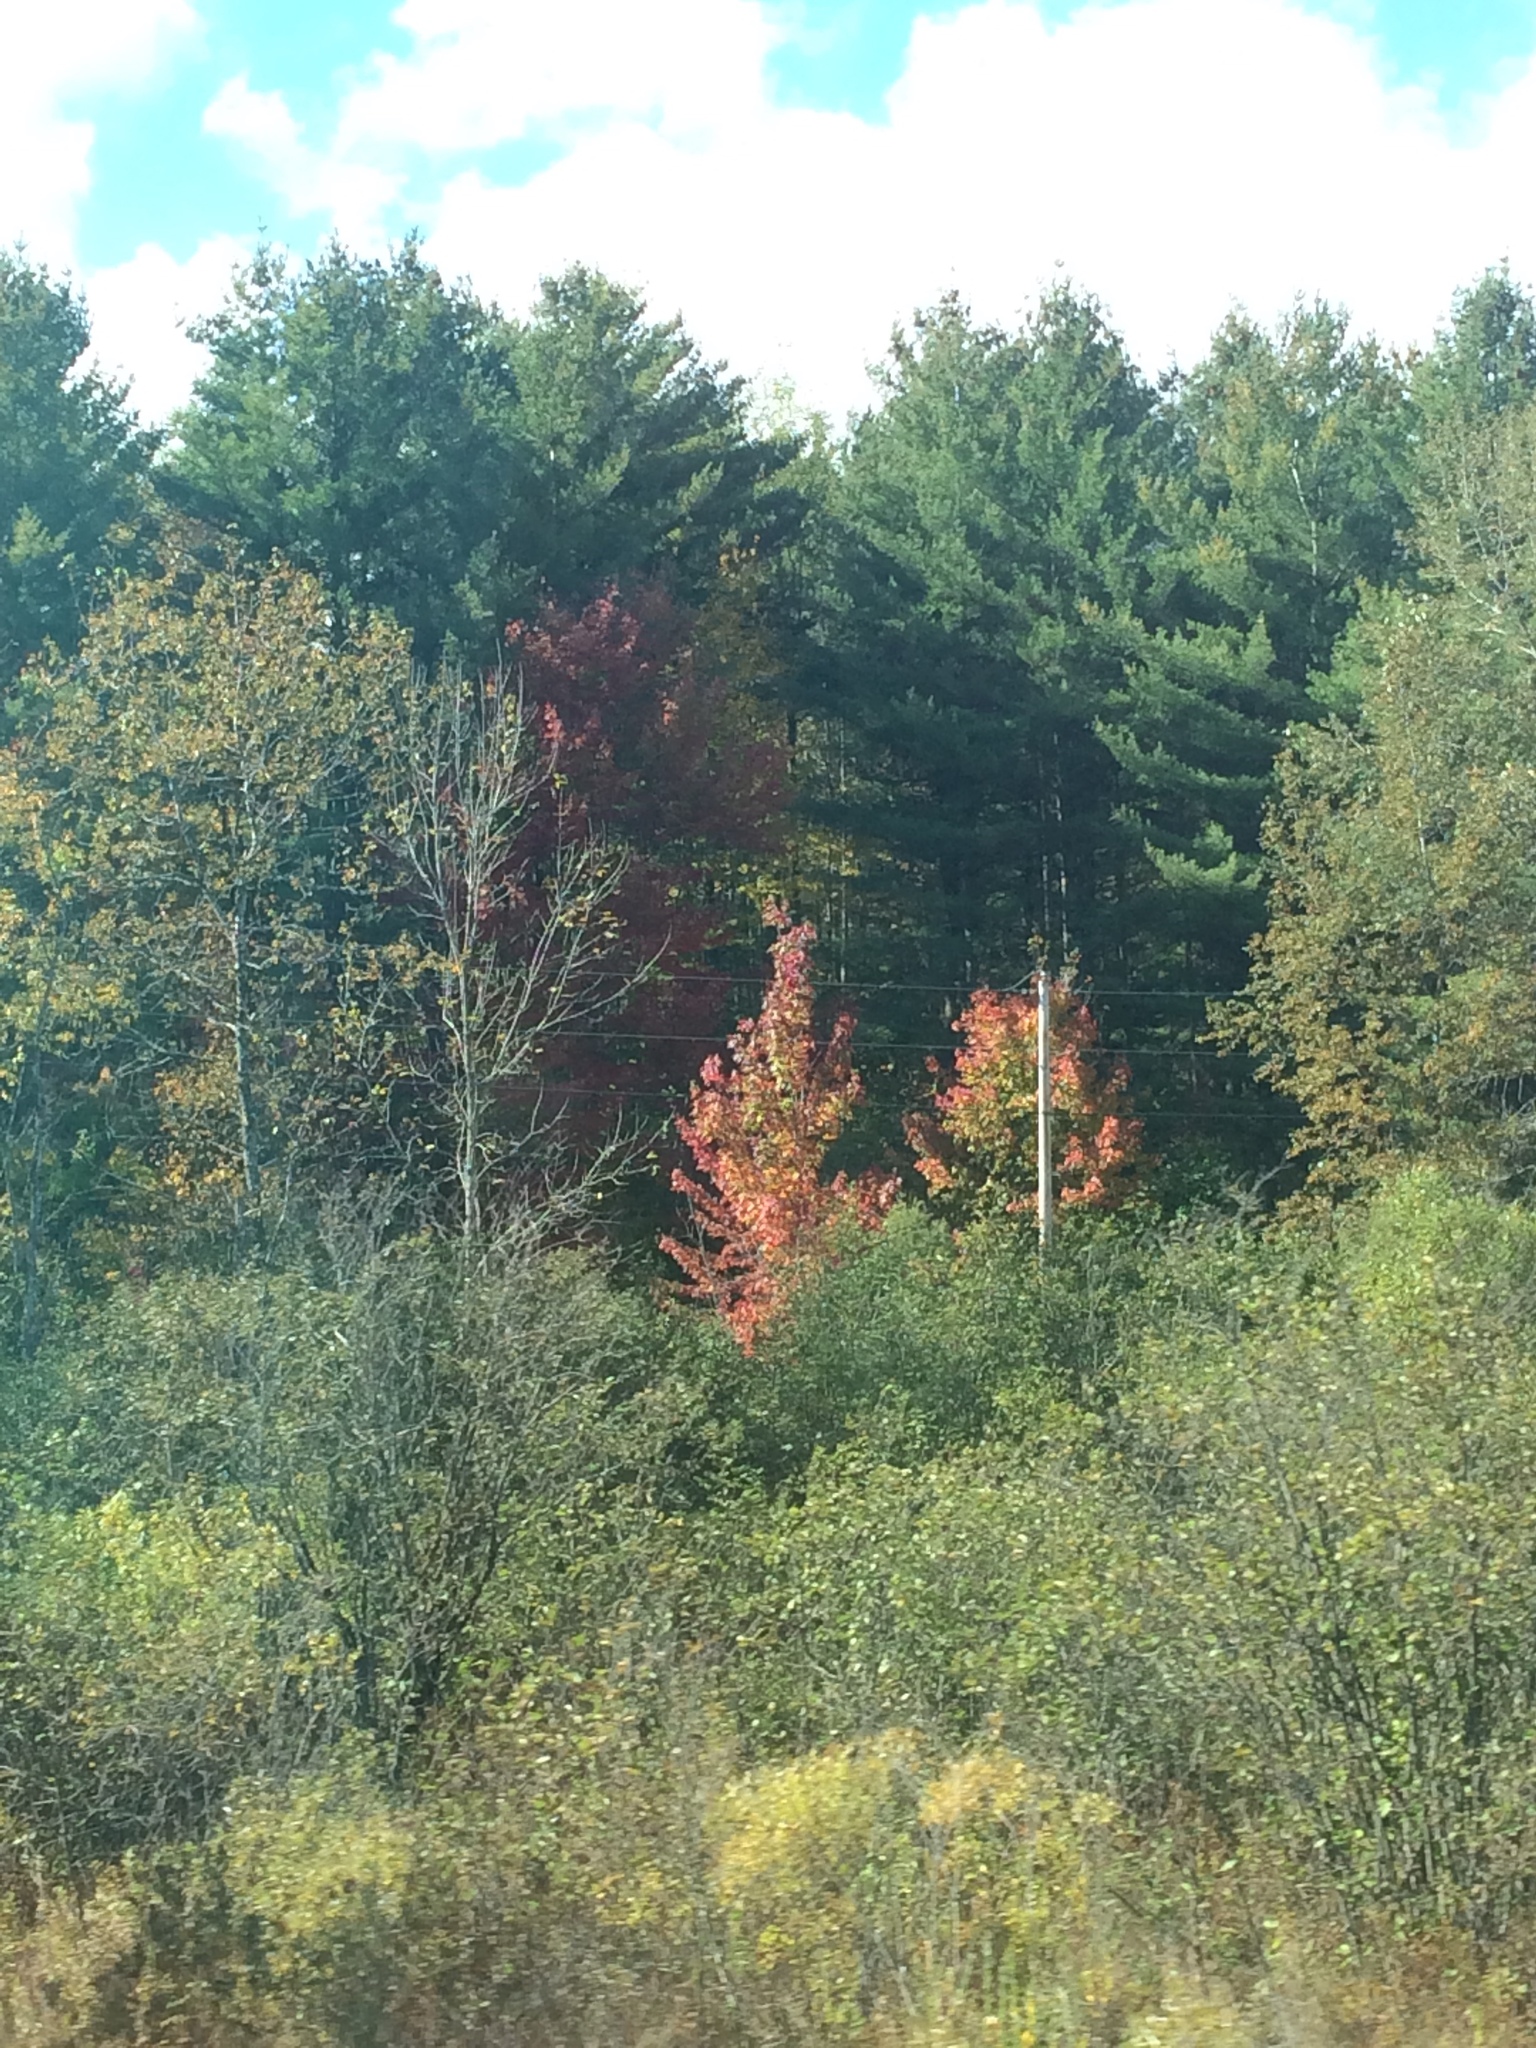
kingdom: Plantae
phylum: Tracheophyta
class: Magnoliopsida
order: Sapindales
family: Sapindaceae
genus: Acer
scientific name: Acer rubrum
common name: Red maple
